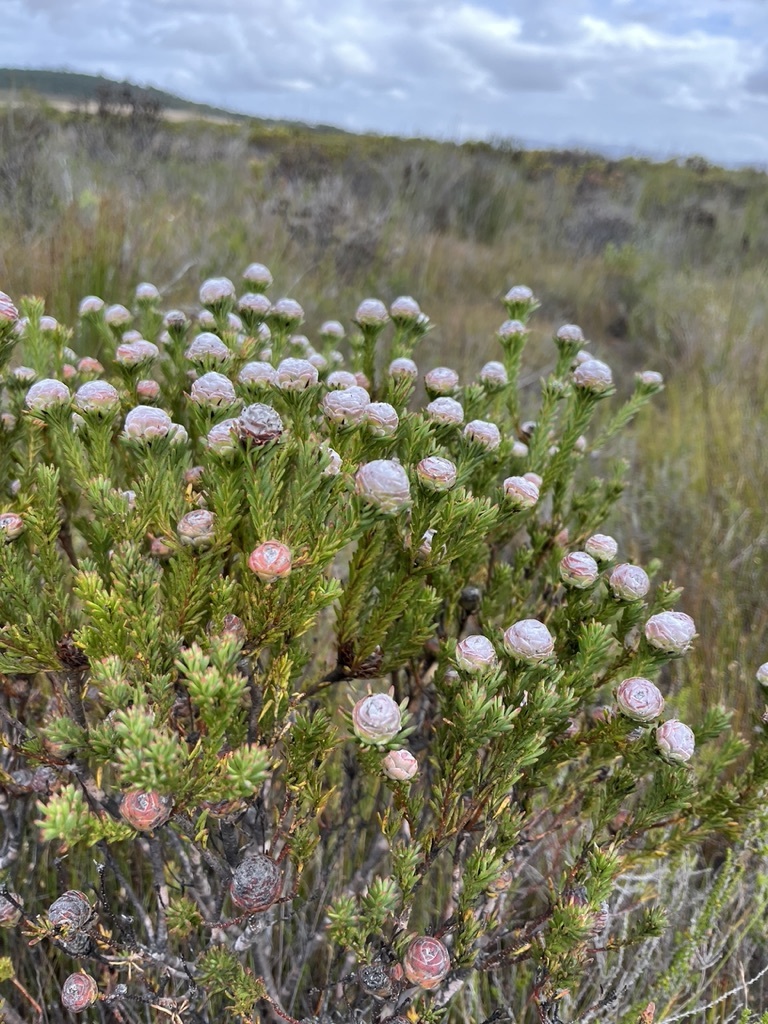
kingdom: Plantae
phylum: Tracheophyta
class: Magnoliopsida
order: Proteales
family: Proteaceae
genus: Leucadendron
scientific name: Leucadendron linifolium
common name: Line-leaf conebush
